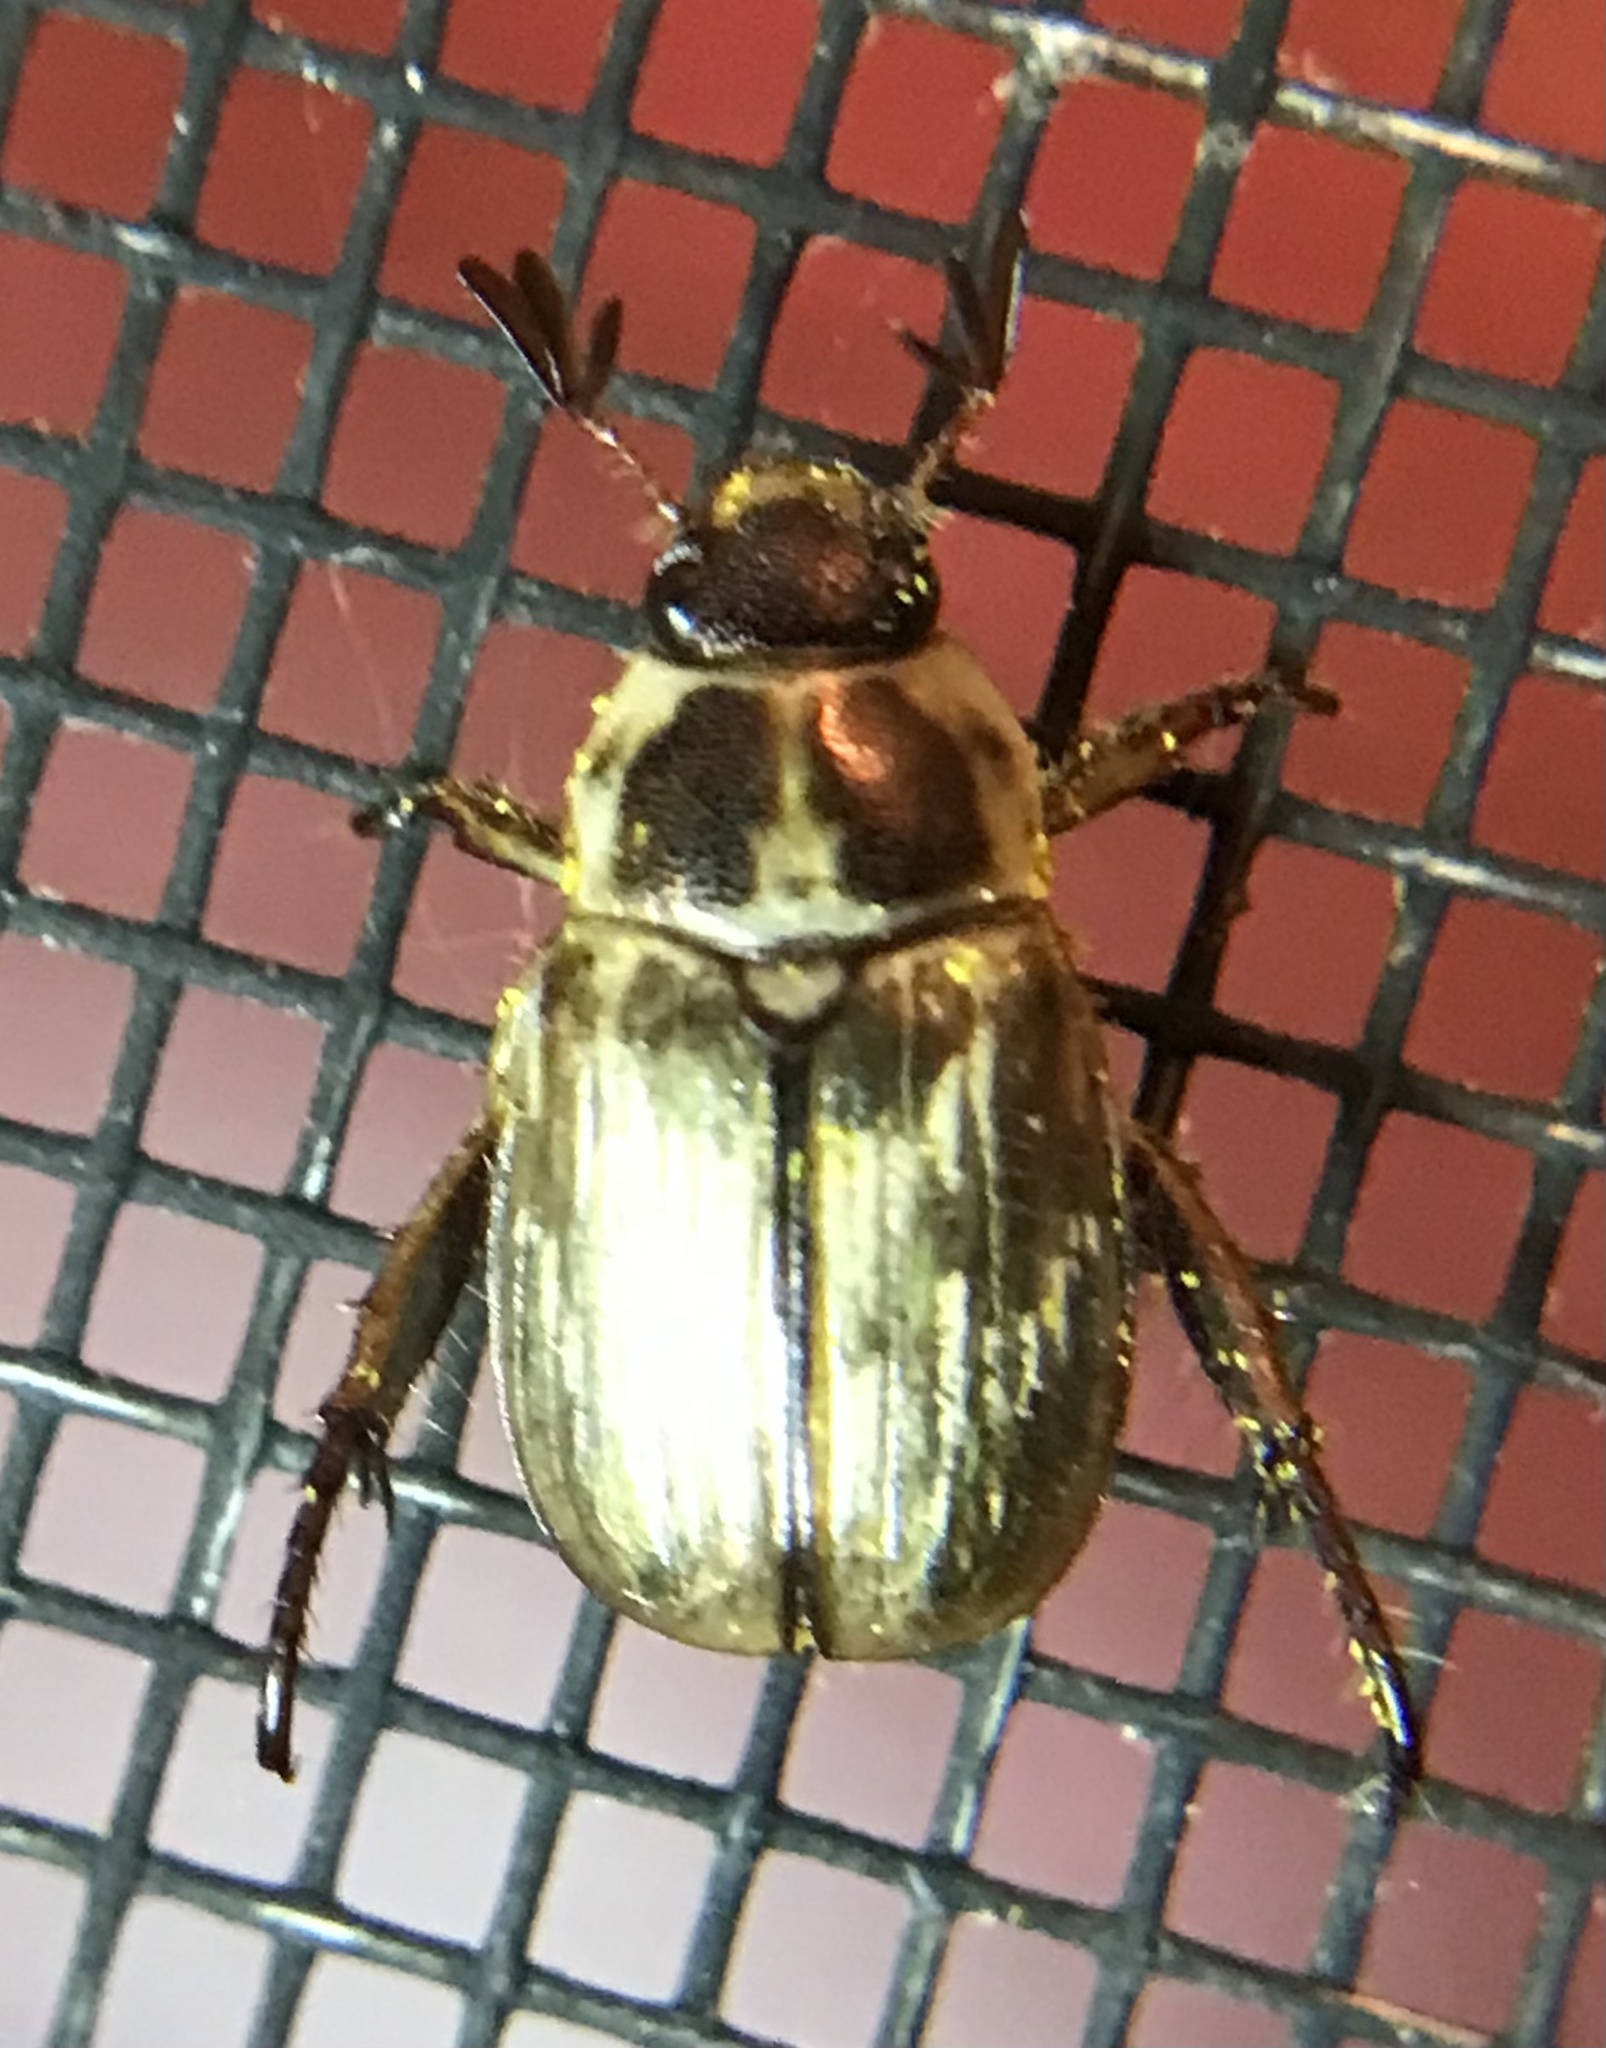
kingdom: Animalia
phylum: Arthropoda
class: Insecta
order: Coleoptera
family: Scarabaeidae
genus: Exomala
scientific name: Exomala orientalis
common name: Oriental beetle
